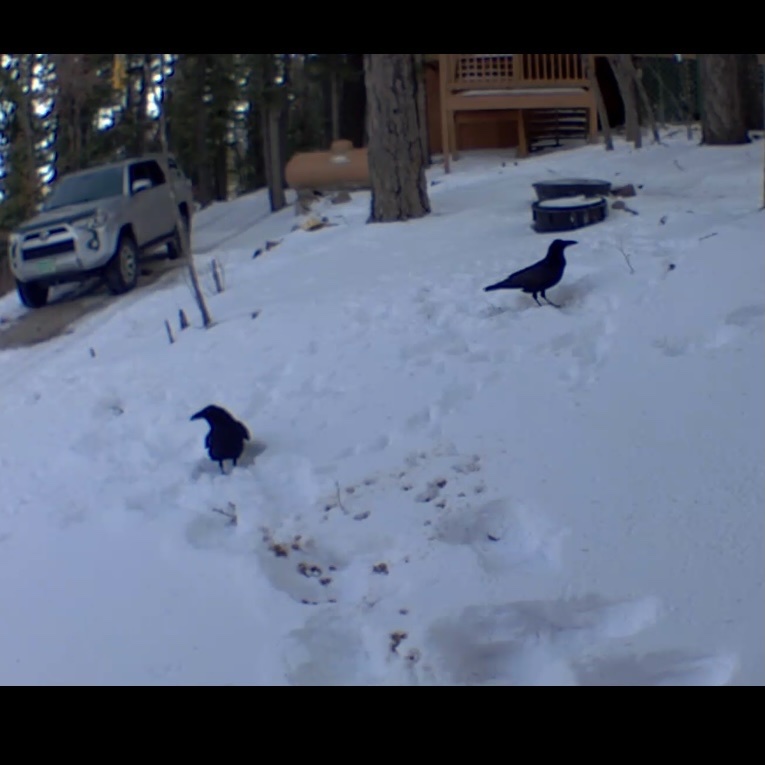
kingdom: Animalia
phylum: Chordata
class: Aves
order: Passeriformes
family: Corvidae
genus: Corvus
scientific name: Corvus corax
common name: Common raven
